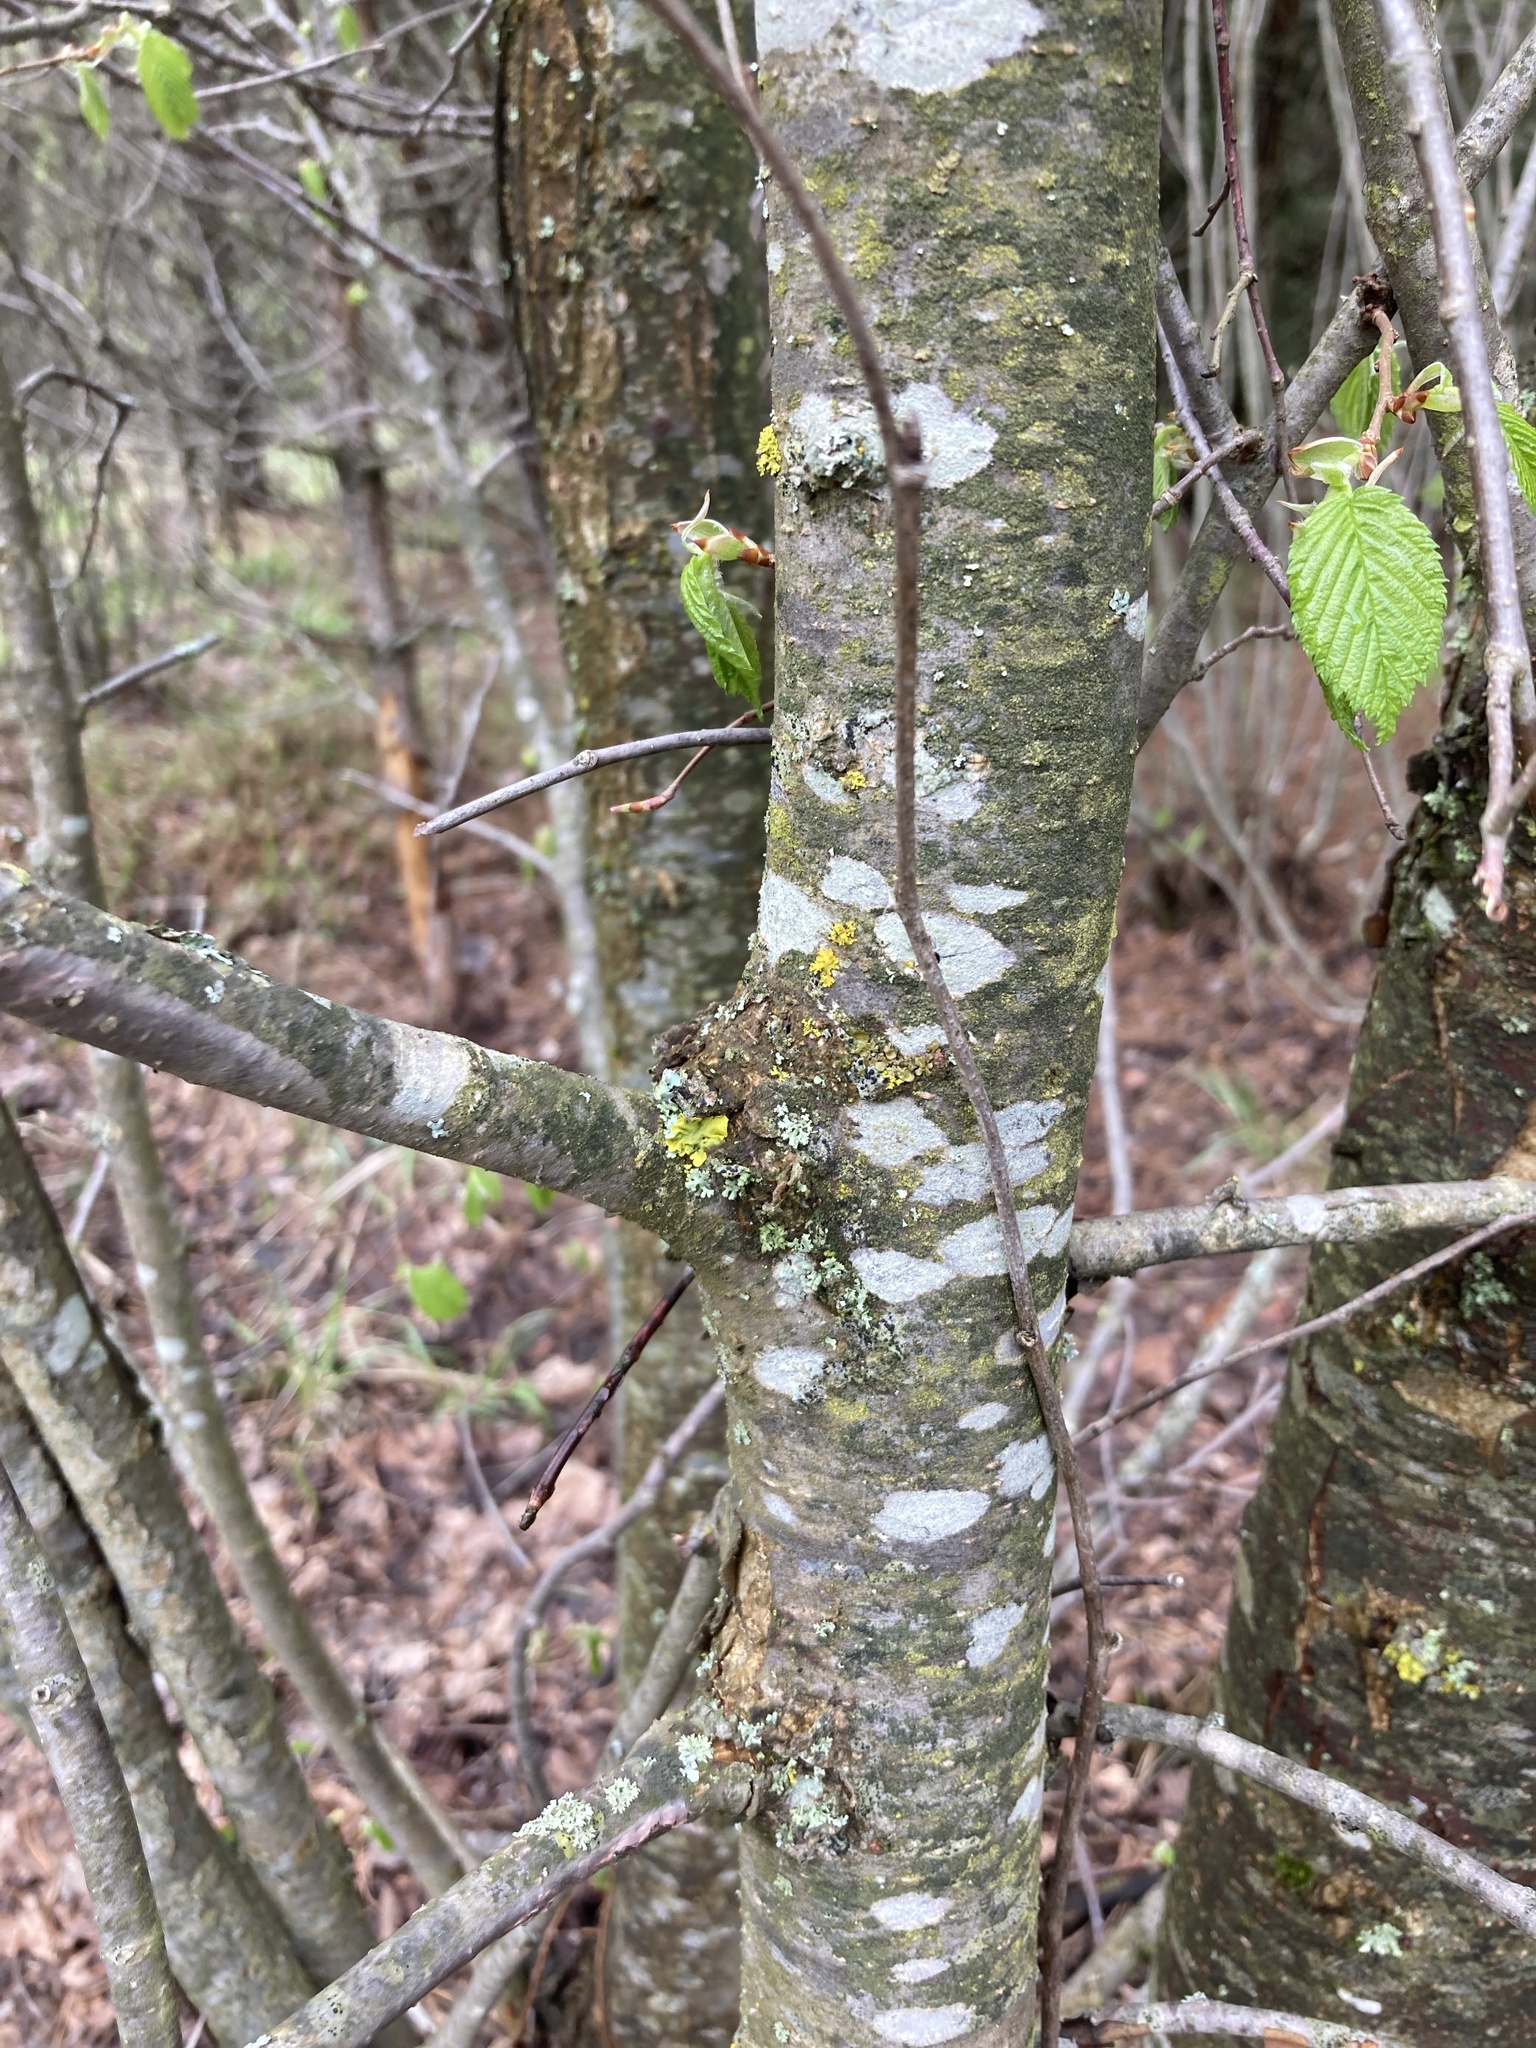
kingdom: Plantae
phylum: Tracheophyta
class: Magnoliopsida
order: Fagales
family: Betulaceae
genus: Corylus
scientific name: Corylus avellana
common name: European hazel
